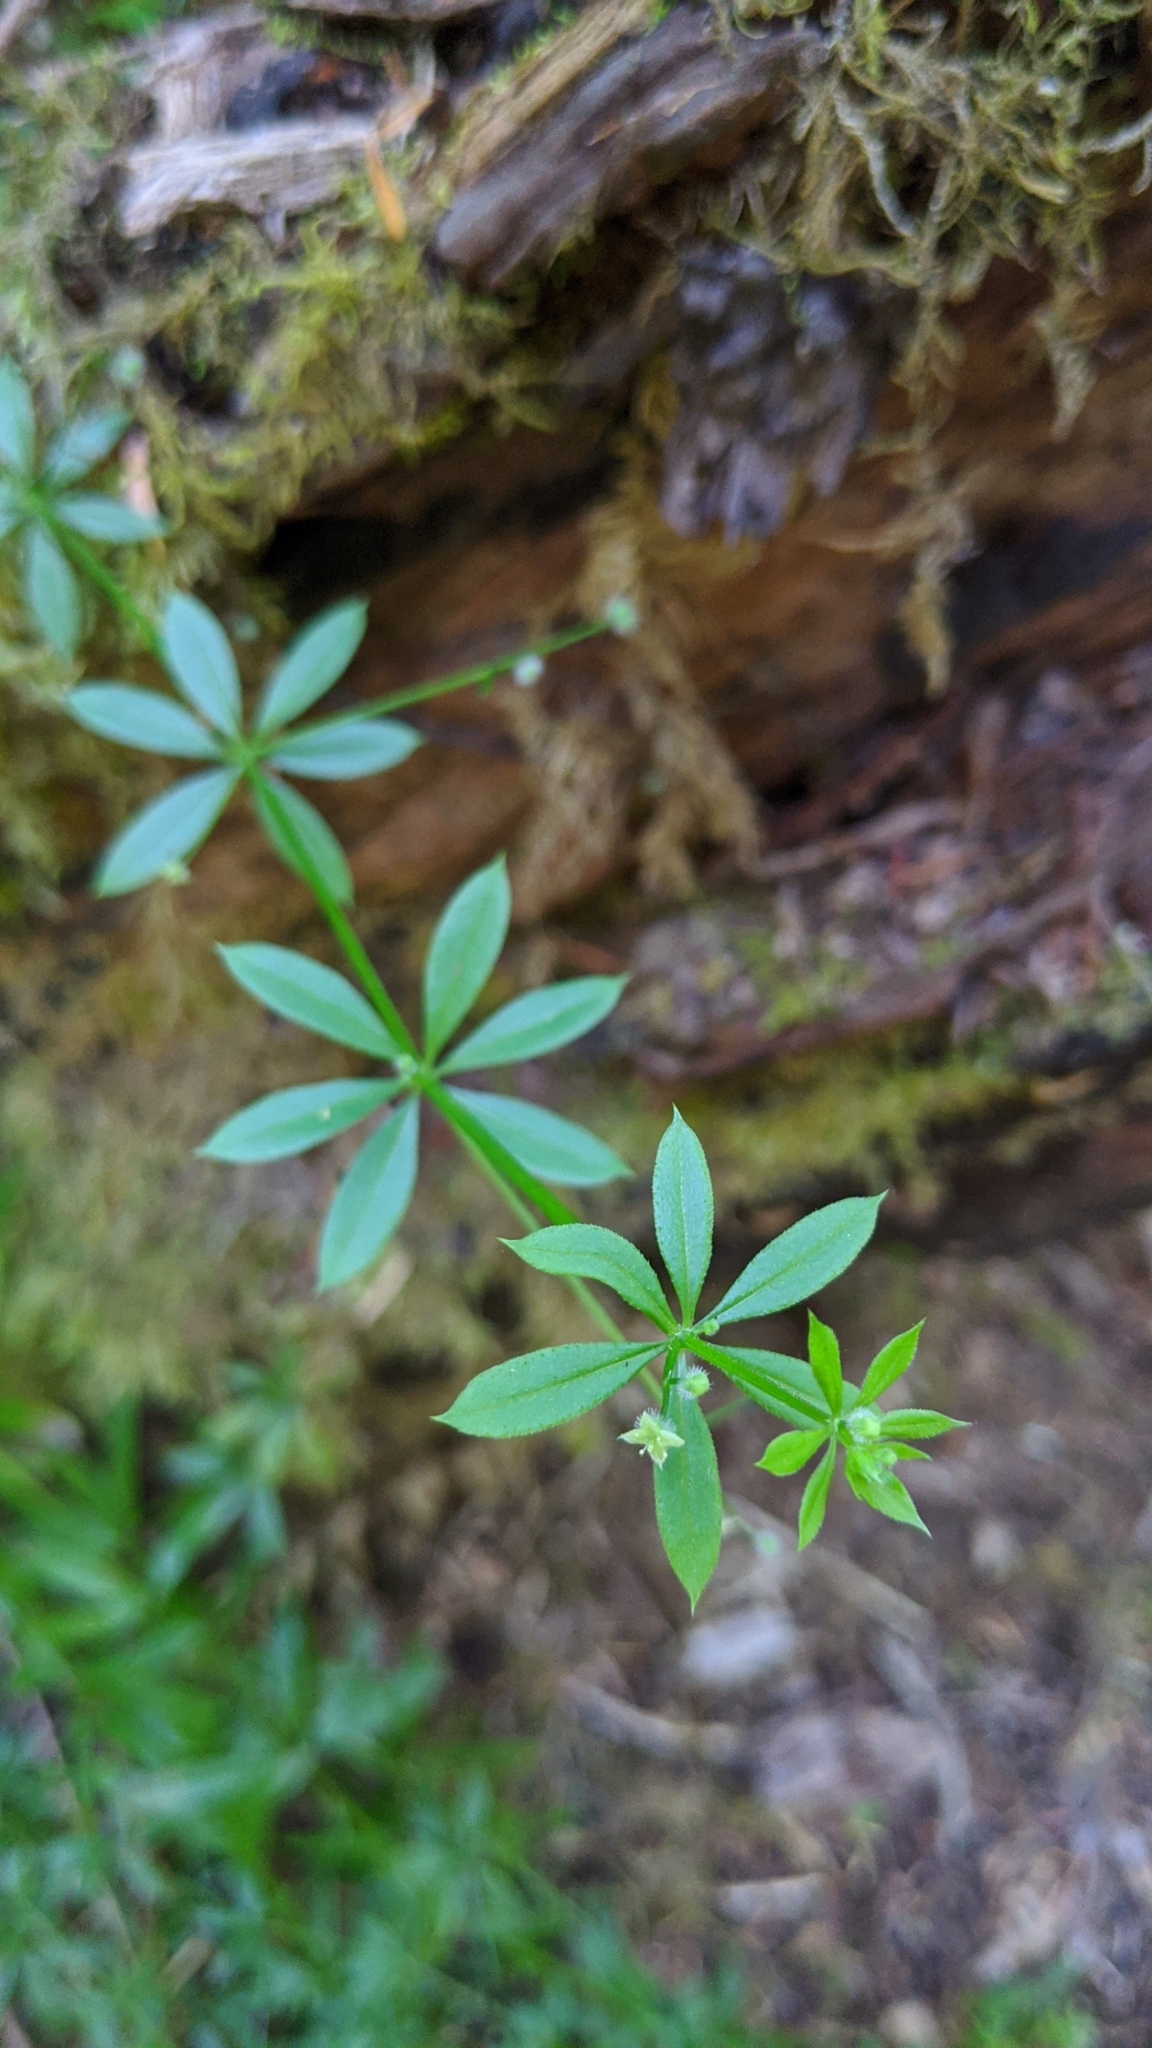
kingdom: Plantae
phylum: Tracheophyta
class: Magnoliopsida
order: Gentianales
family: Rubiaceae
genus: Galium
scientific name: Galium triflorum
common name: Fragrant bedstraw
